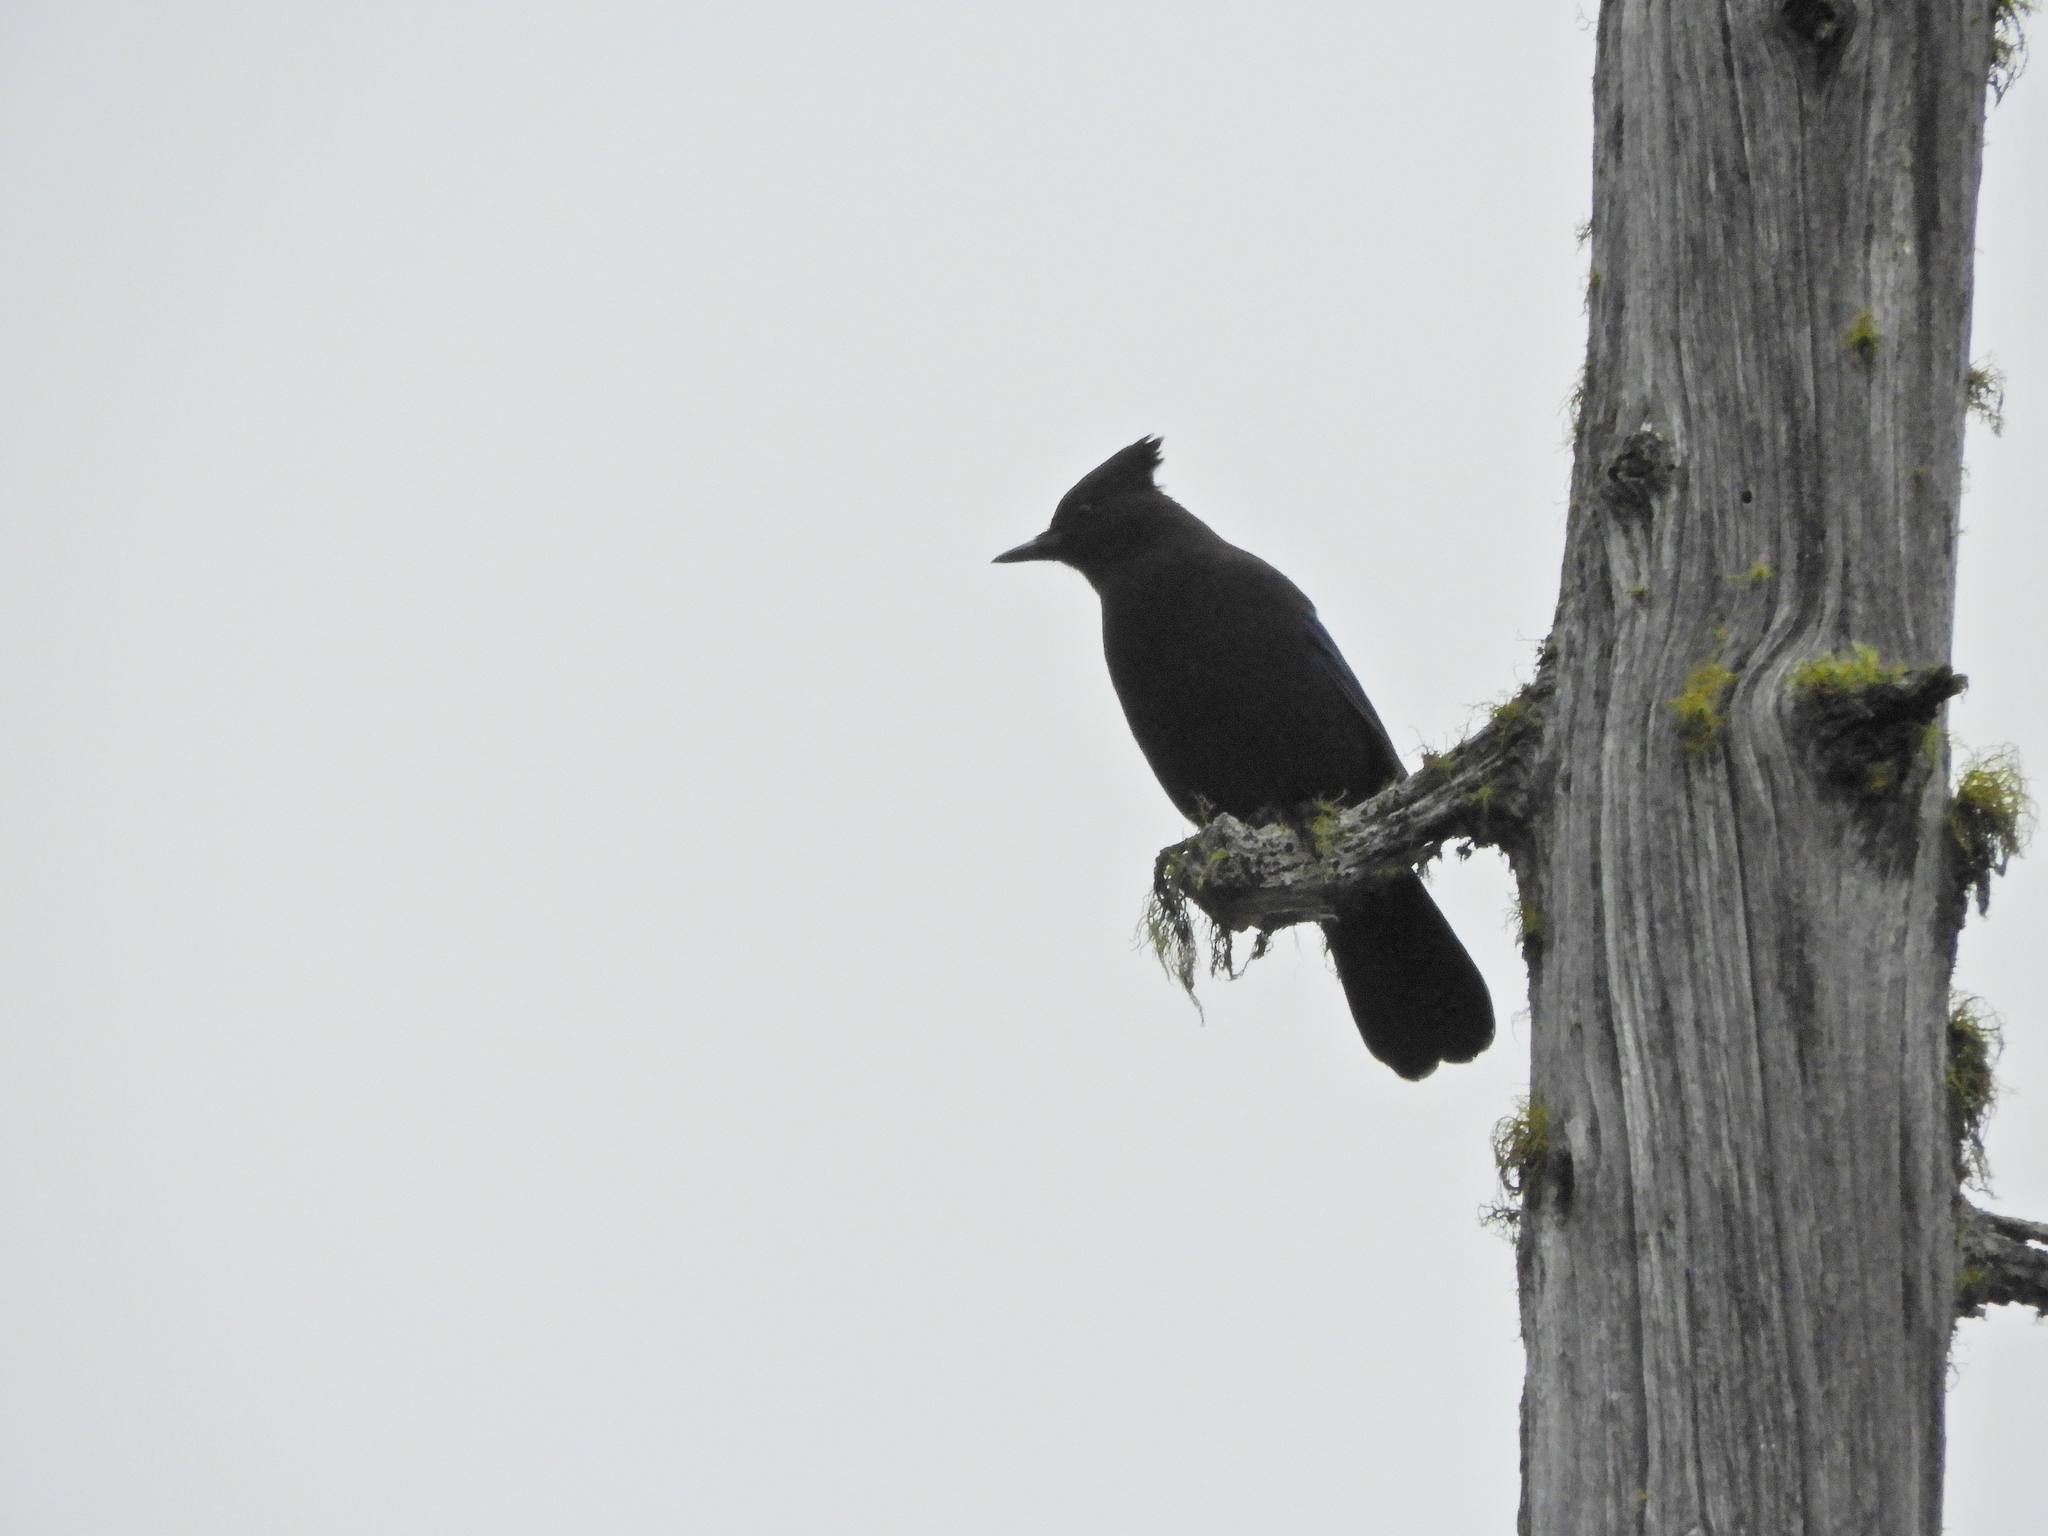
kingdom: Animalia
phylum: Chordata
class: Aves
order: Passeriformes
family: Corvidae
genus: Cyanocitta
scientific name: Cyanocitta stelleri
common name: Steller's jay
